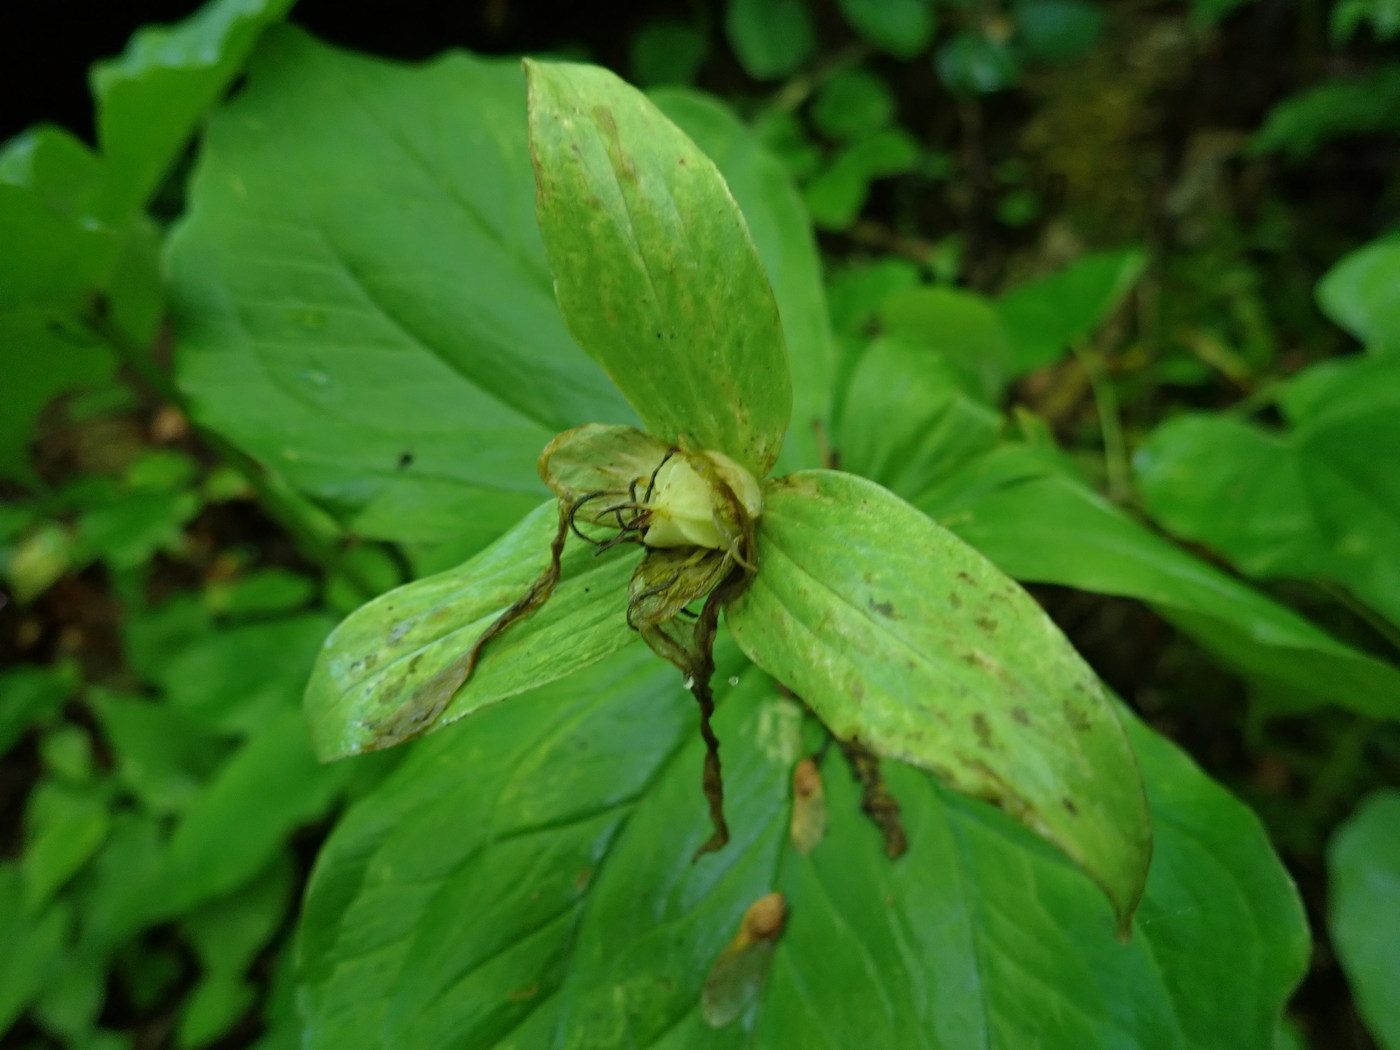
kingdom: Plantae
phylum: Tracheophyta
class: Liliopsida
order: Liliales
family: Melanthiaceae
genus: Trillium
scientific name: Trillium grandiflorum
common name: Great white trillium
